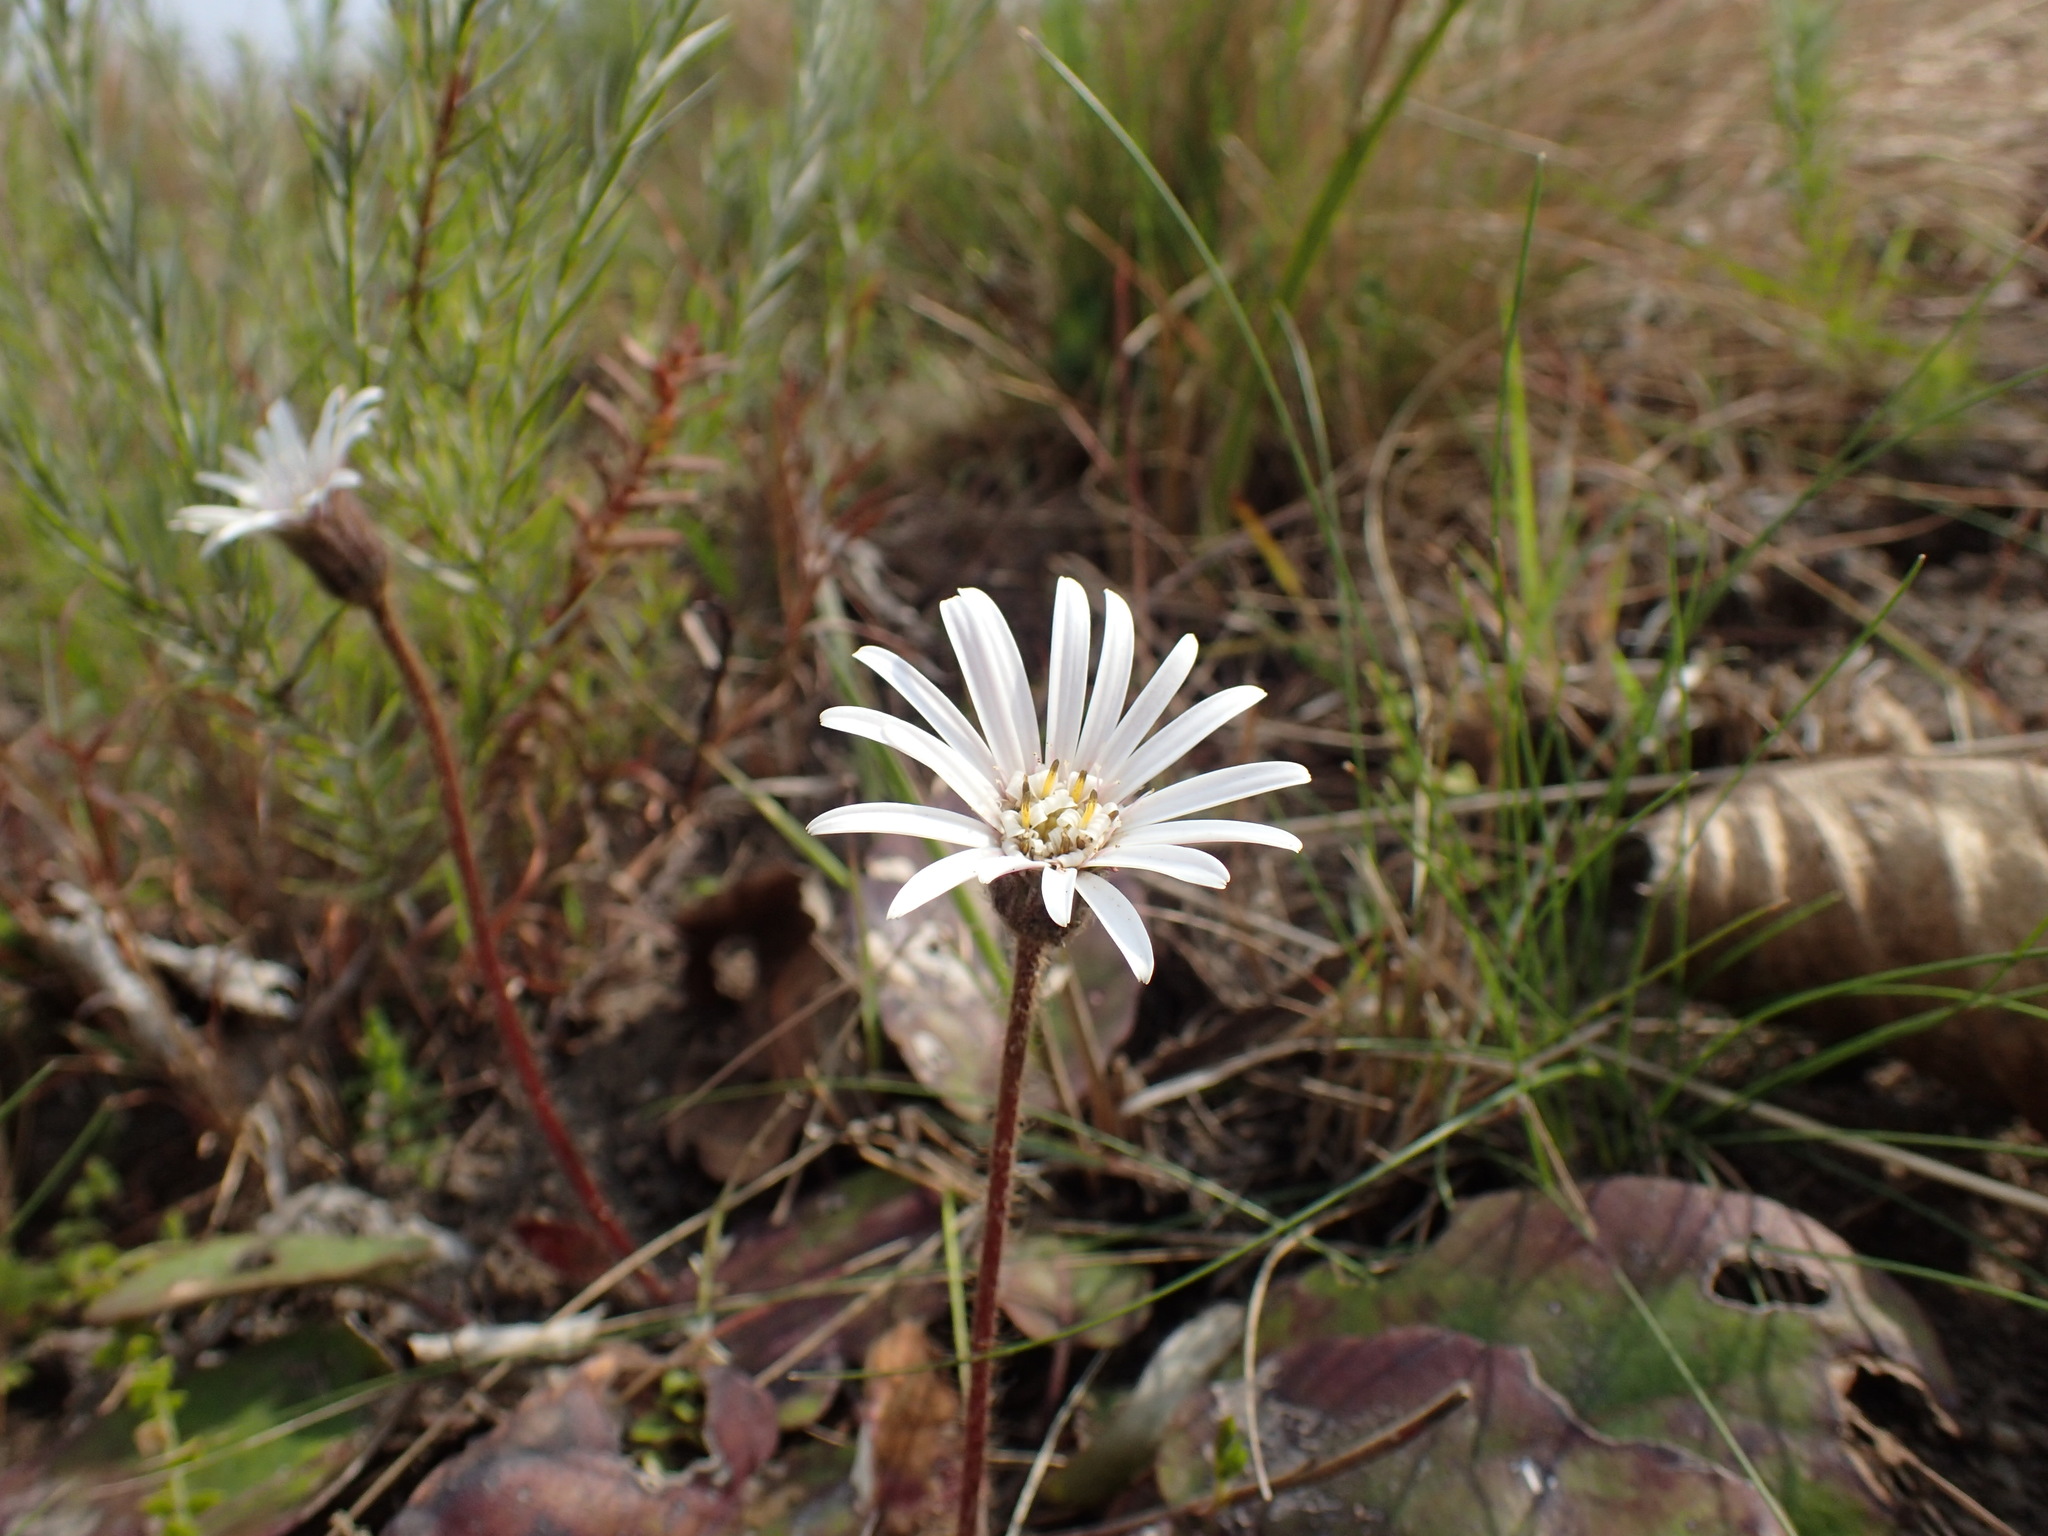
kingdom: Plantae
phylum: Tracheophyta
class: Magnoliopsida
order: Asterales
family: Asteraceae
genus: Gerbera
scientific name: Gerbera ambigua
